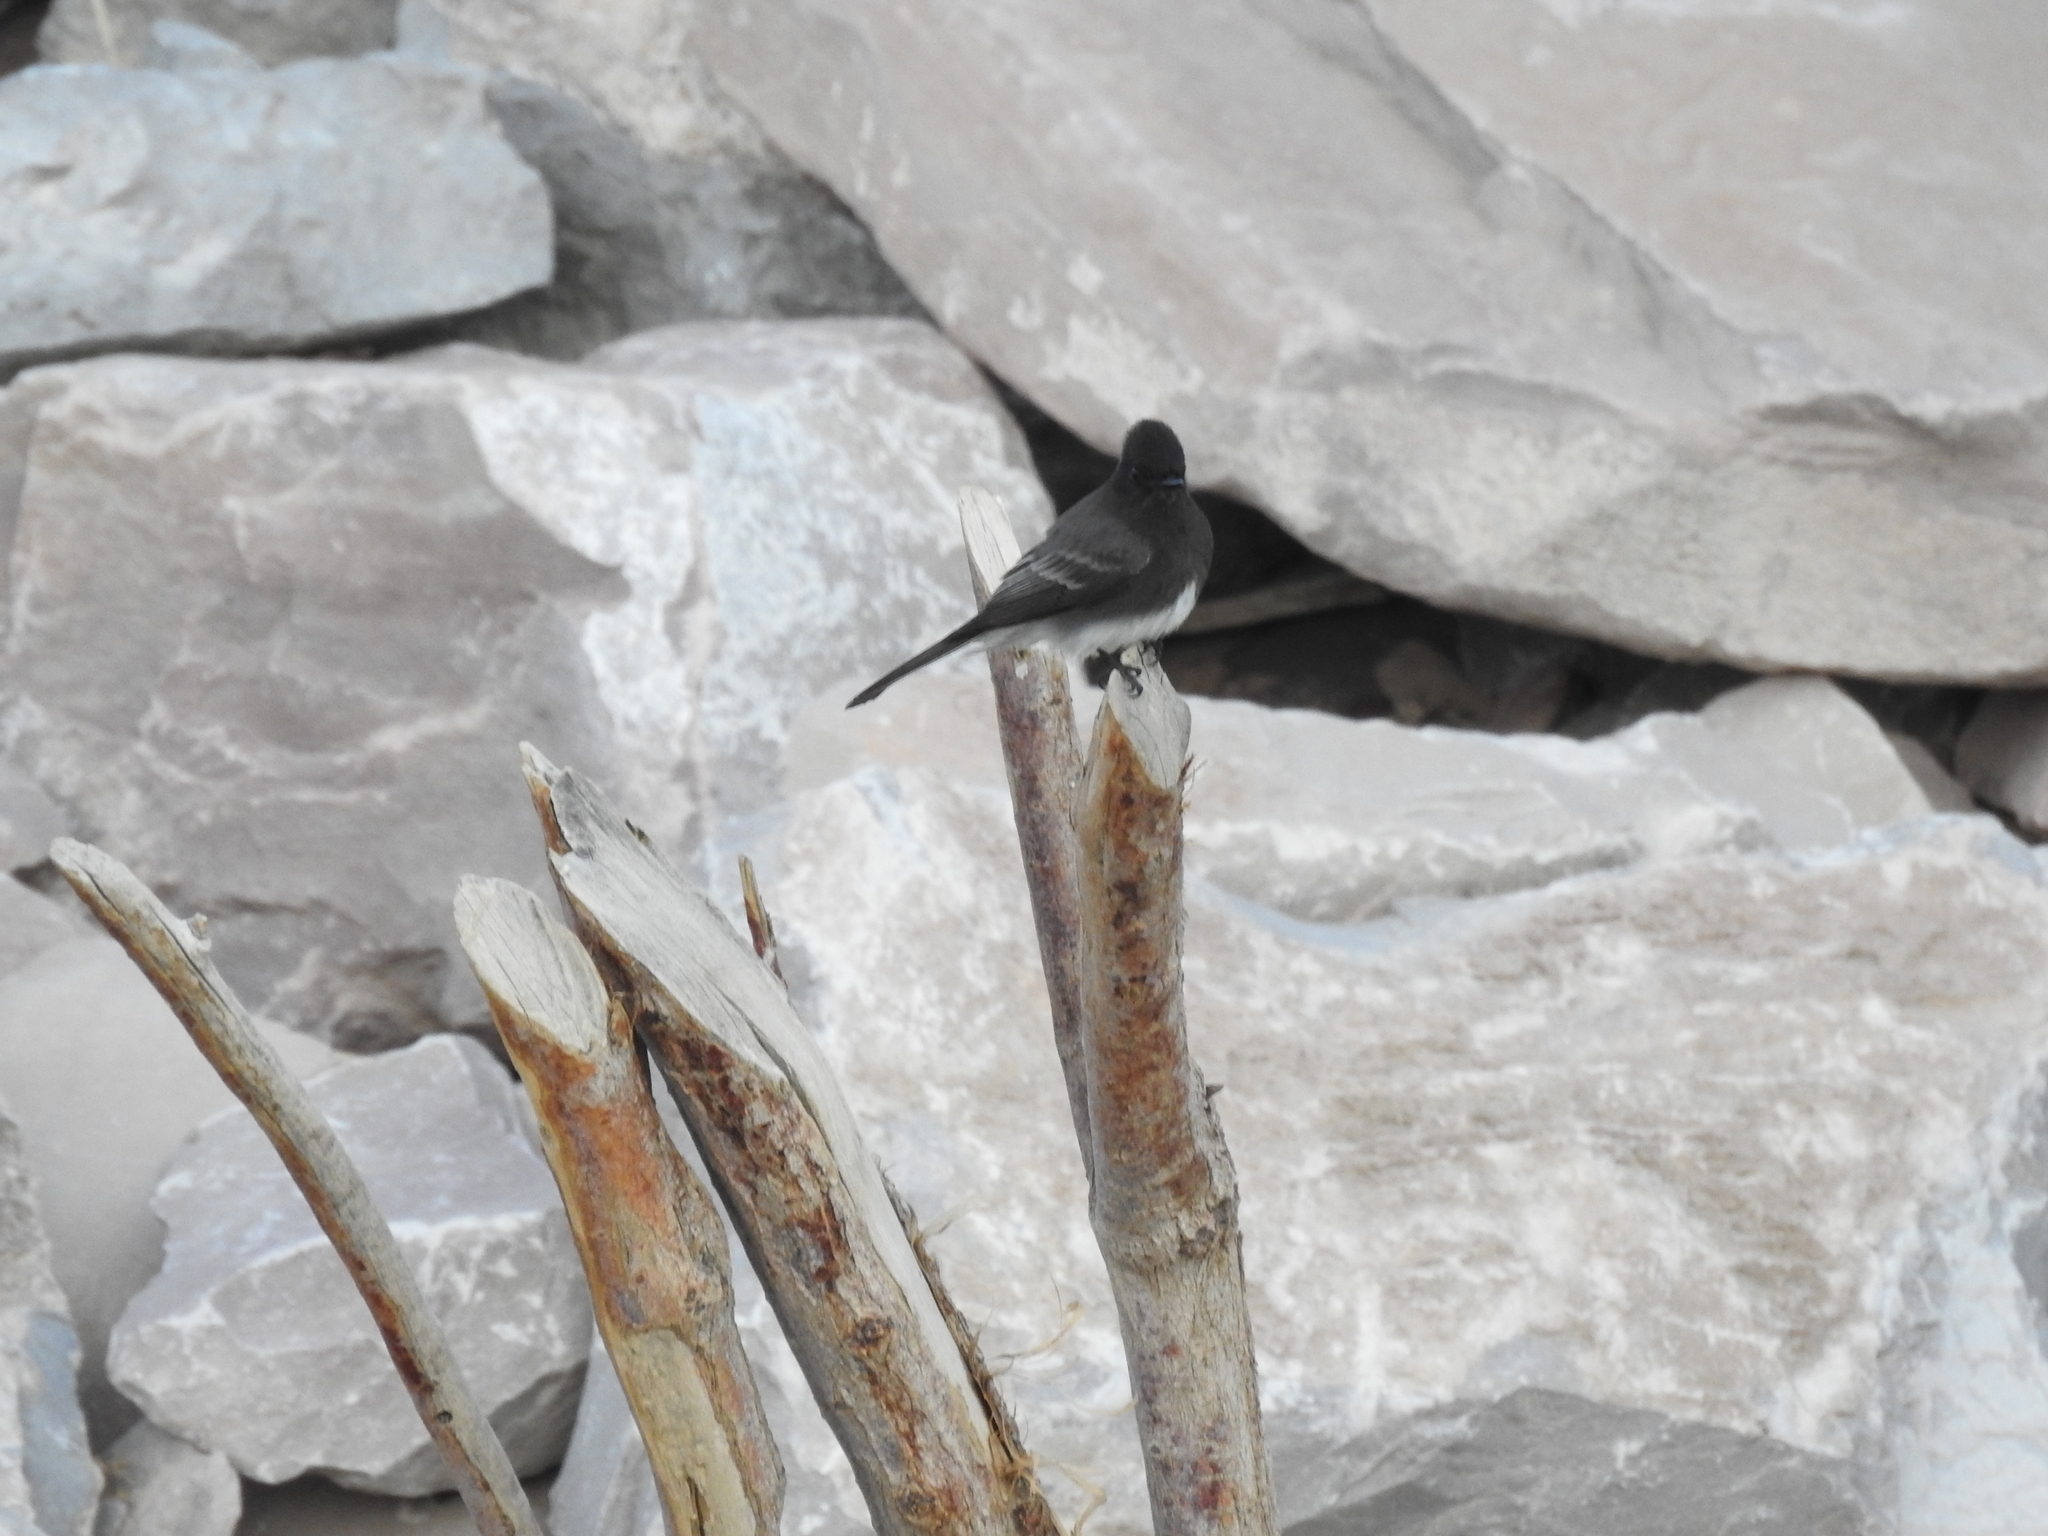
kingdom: Animalia
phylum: Chordata
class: Aves
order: Passeriformes
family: Tyrannidae
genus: Sayornis
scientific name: Sayornis nigricans
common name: Black phoebe
